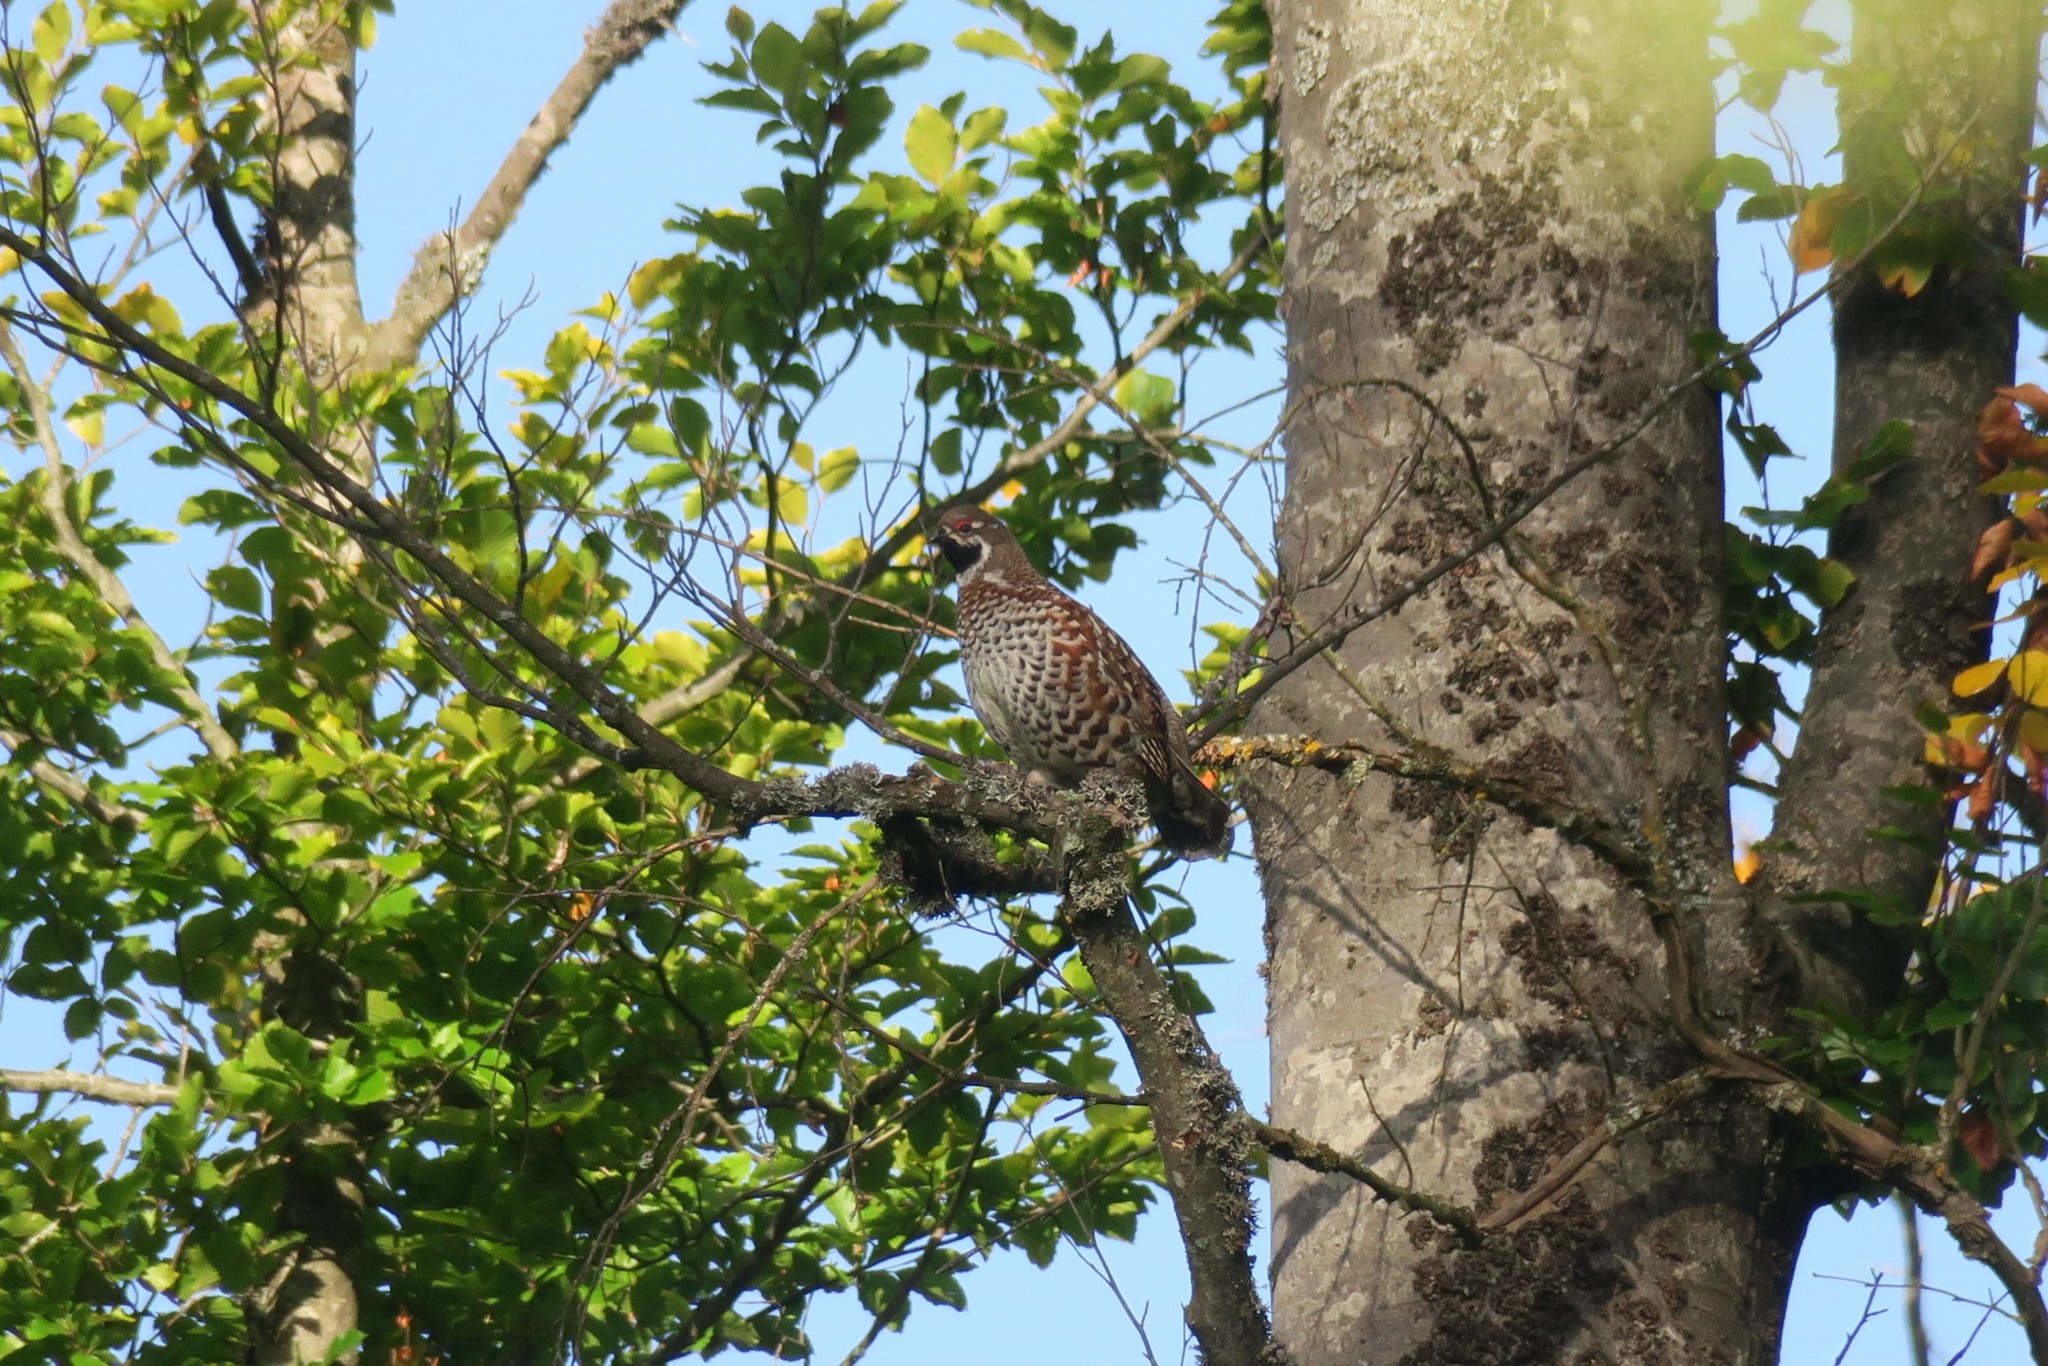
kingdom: Animalia
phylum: Chordata
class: Aves
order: Galliformes
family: Phasianidae
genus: Tetrastes
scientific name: Tetrastes bonasia
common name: Hazel grouse
